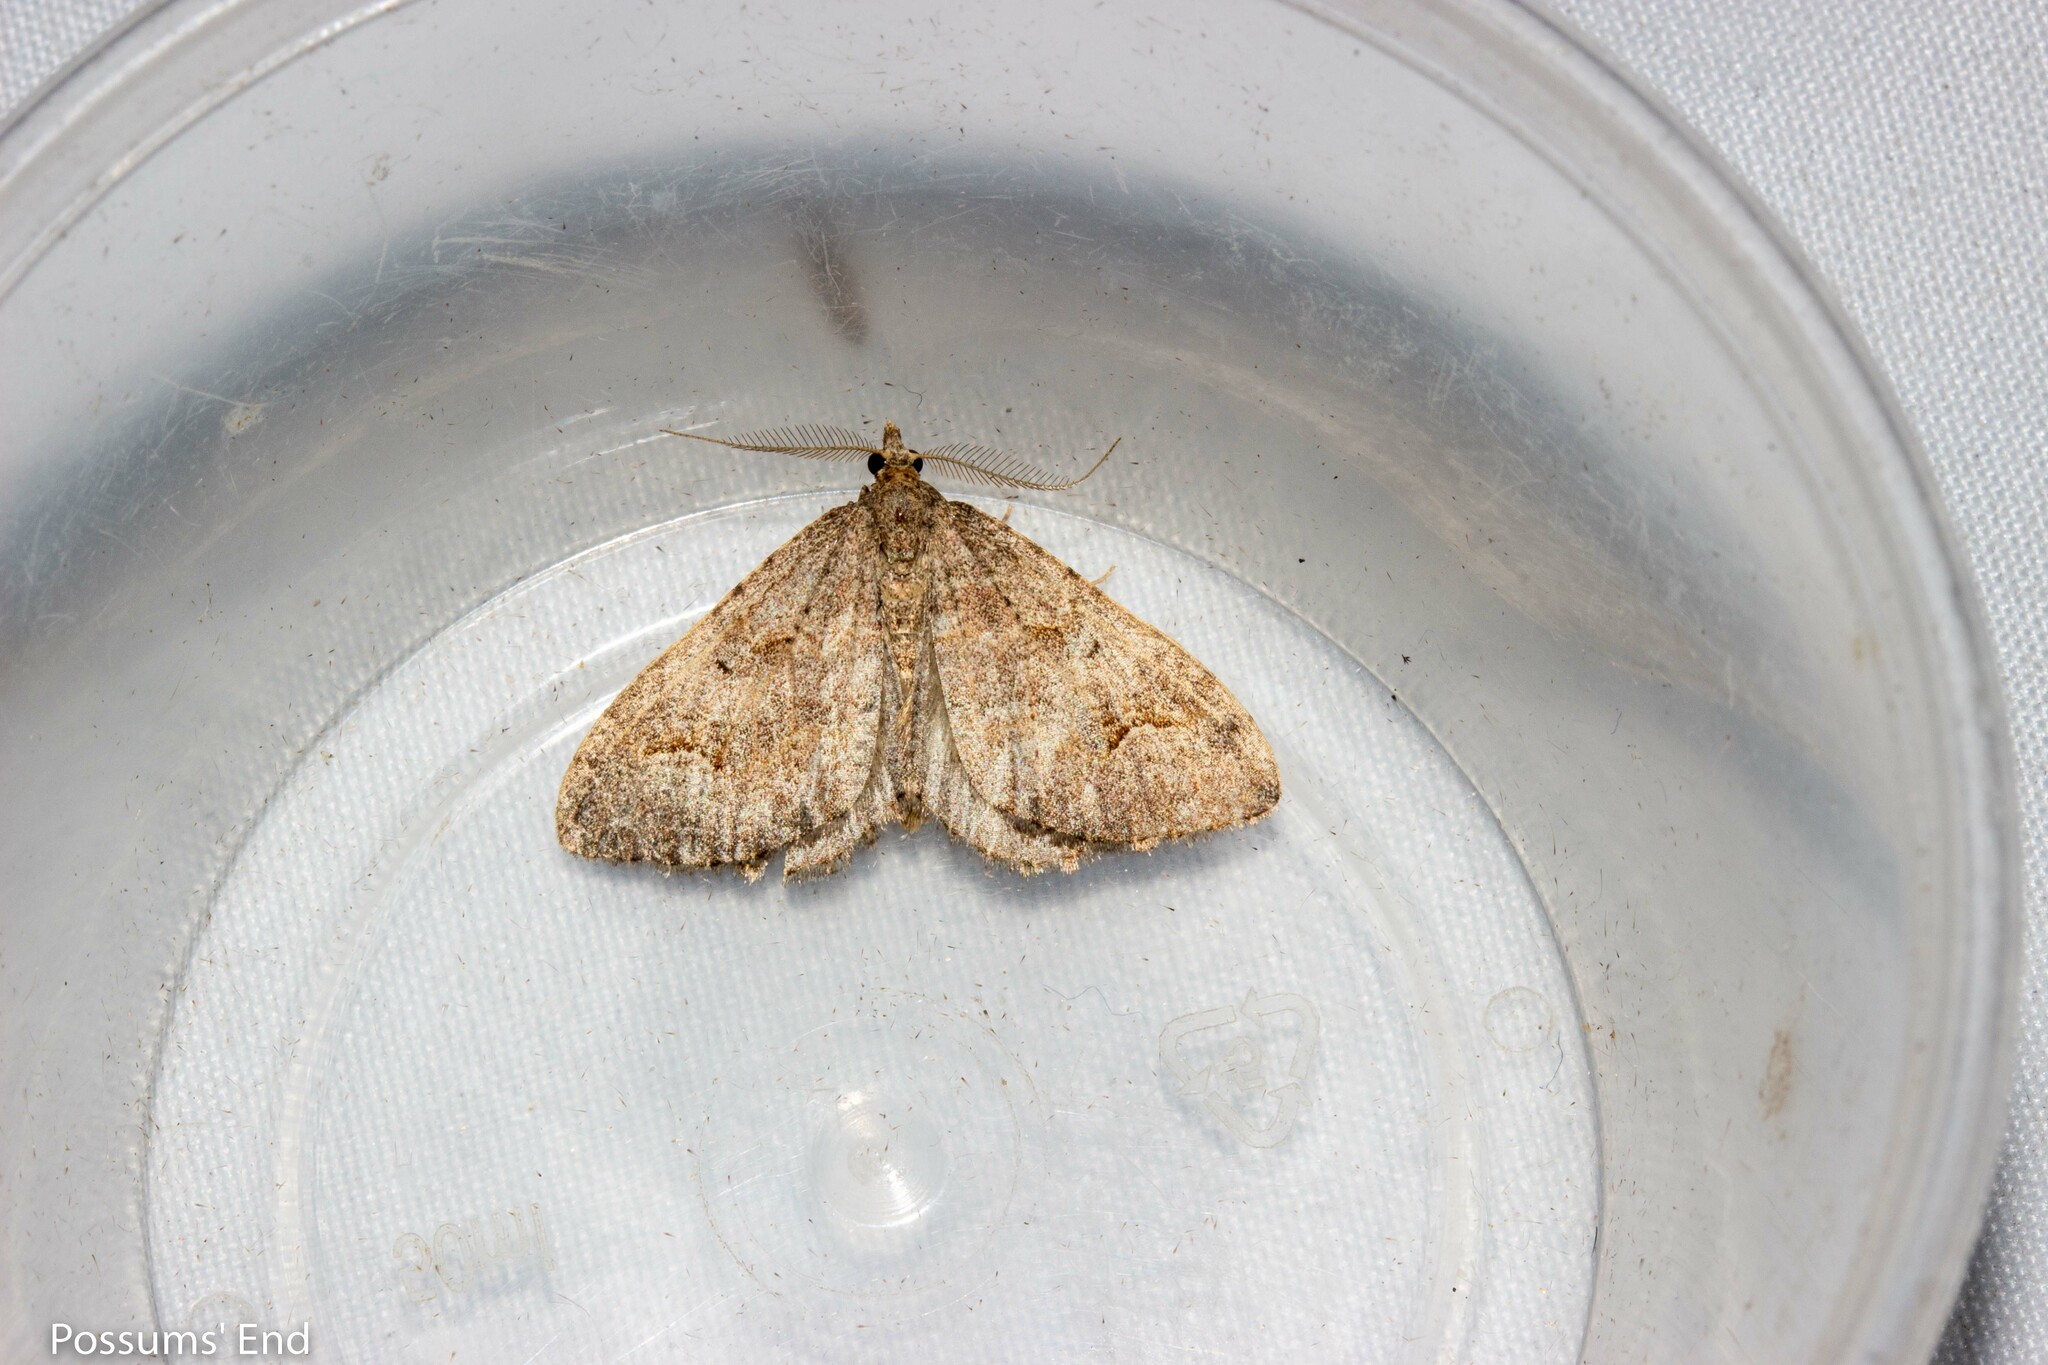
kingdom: Animalia
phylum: Arthropoda
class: Insecta
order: Lepidoptera
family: Geometridae
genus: Epyaxa
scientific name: Epyaxa rosearia
